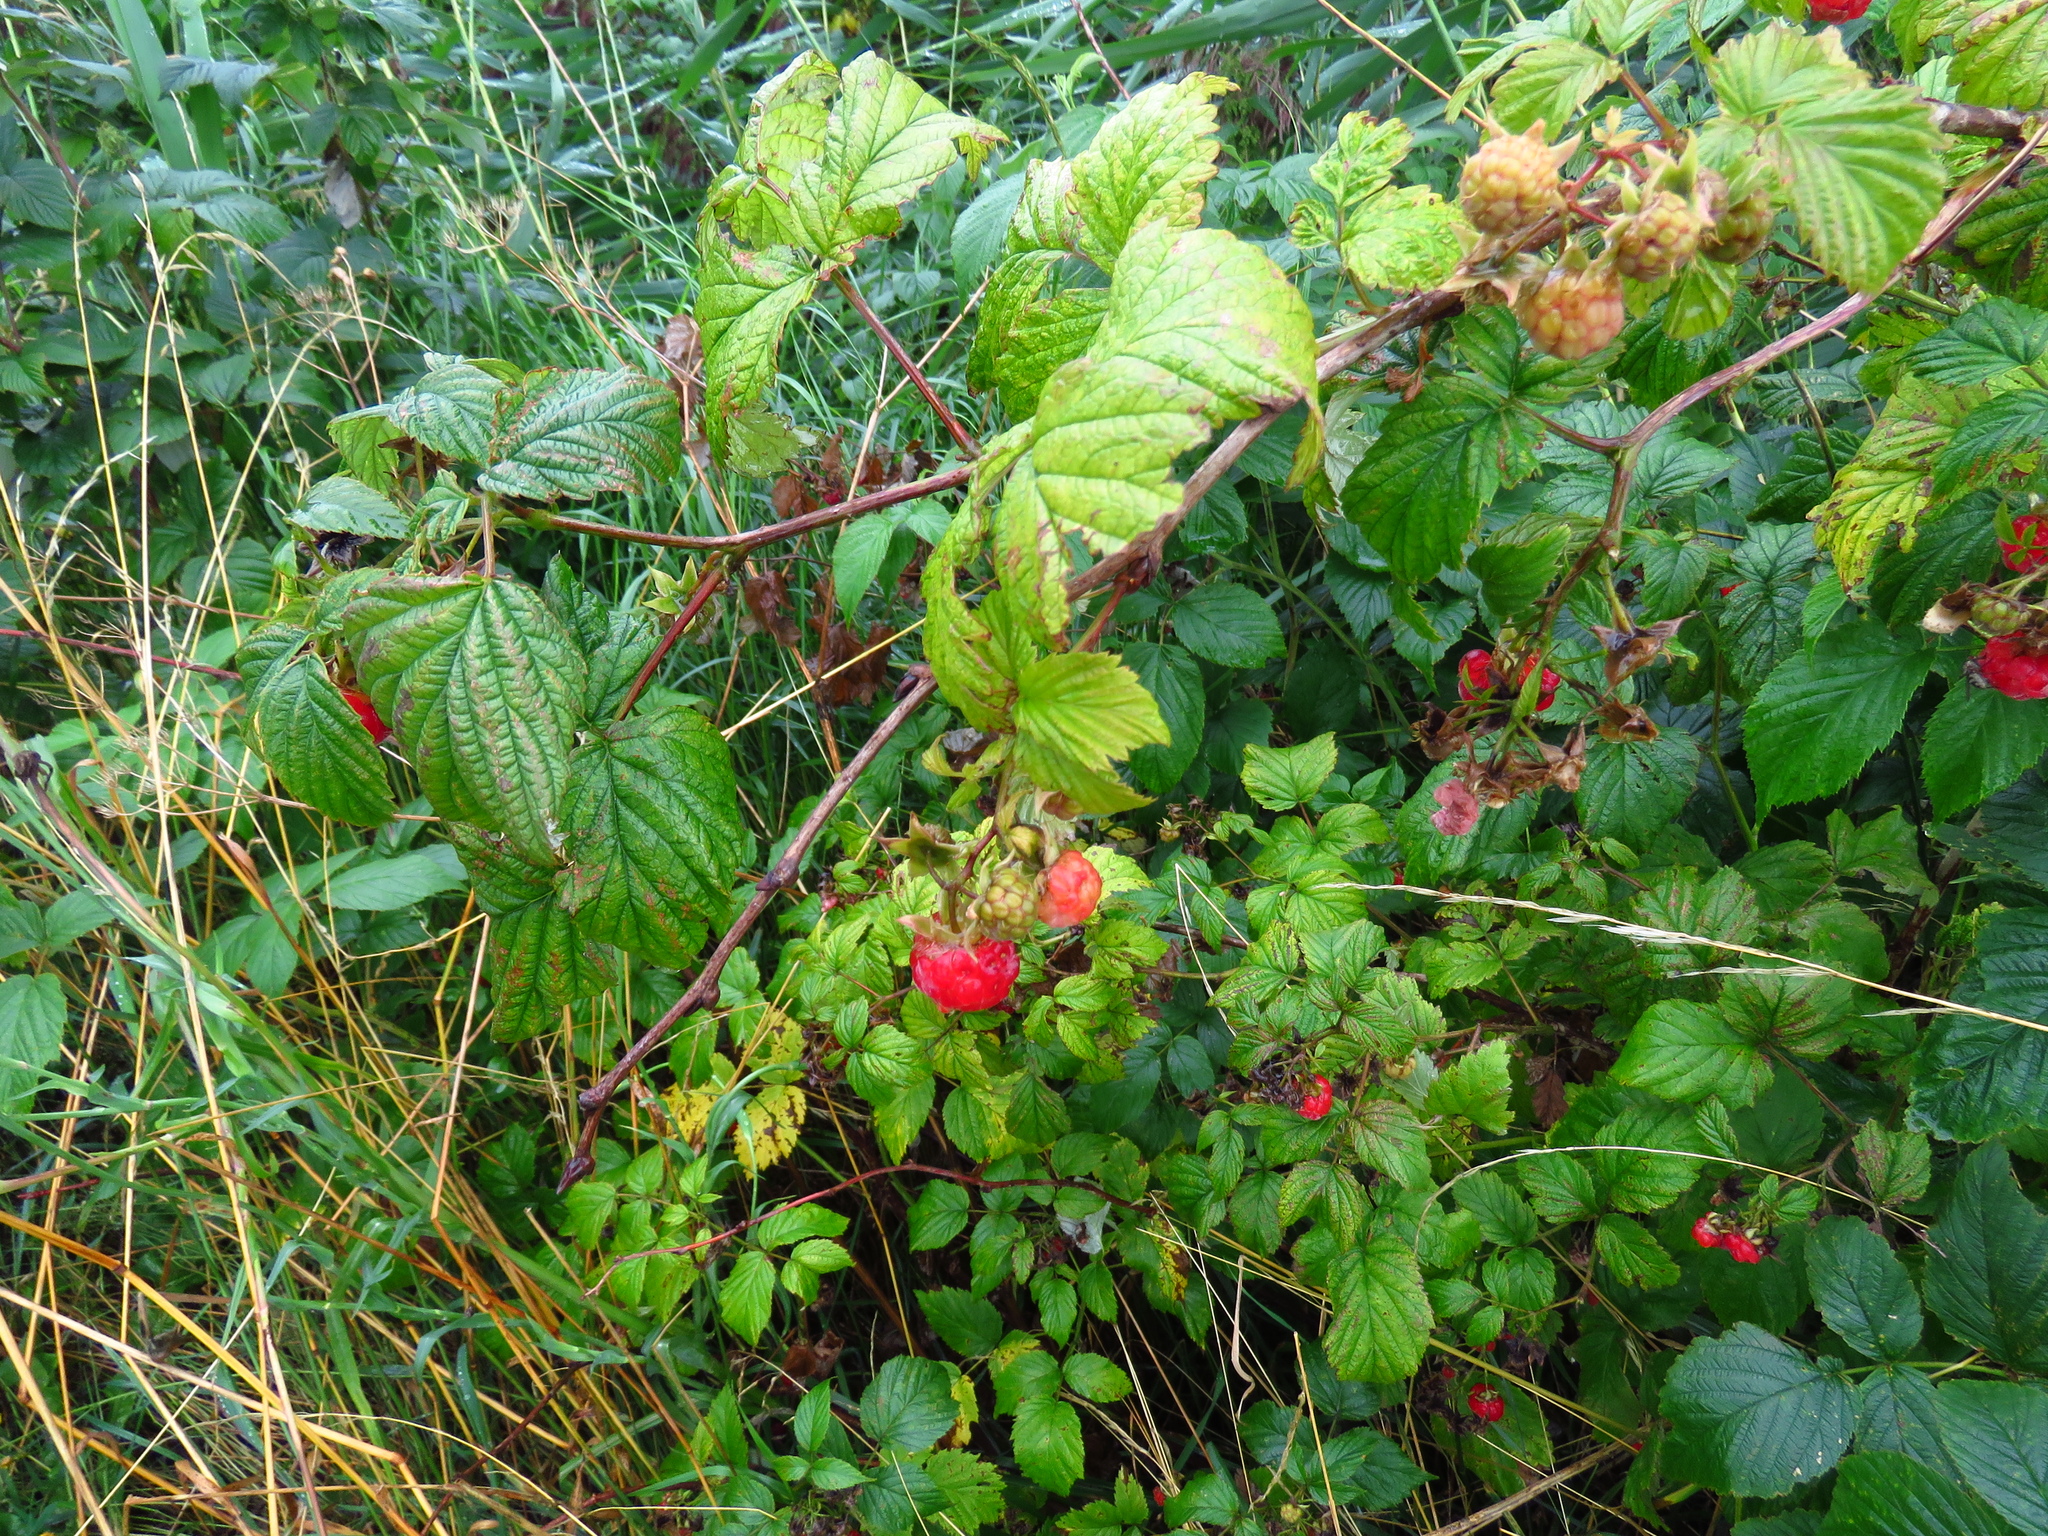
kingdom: Plantae
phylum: Tracheophyta
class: Magnoliopsida
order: Rosales
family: Rosaceae
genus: Rubus
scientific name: Rubus idaeus
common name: Raspberry
